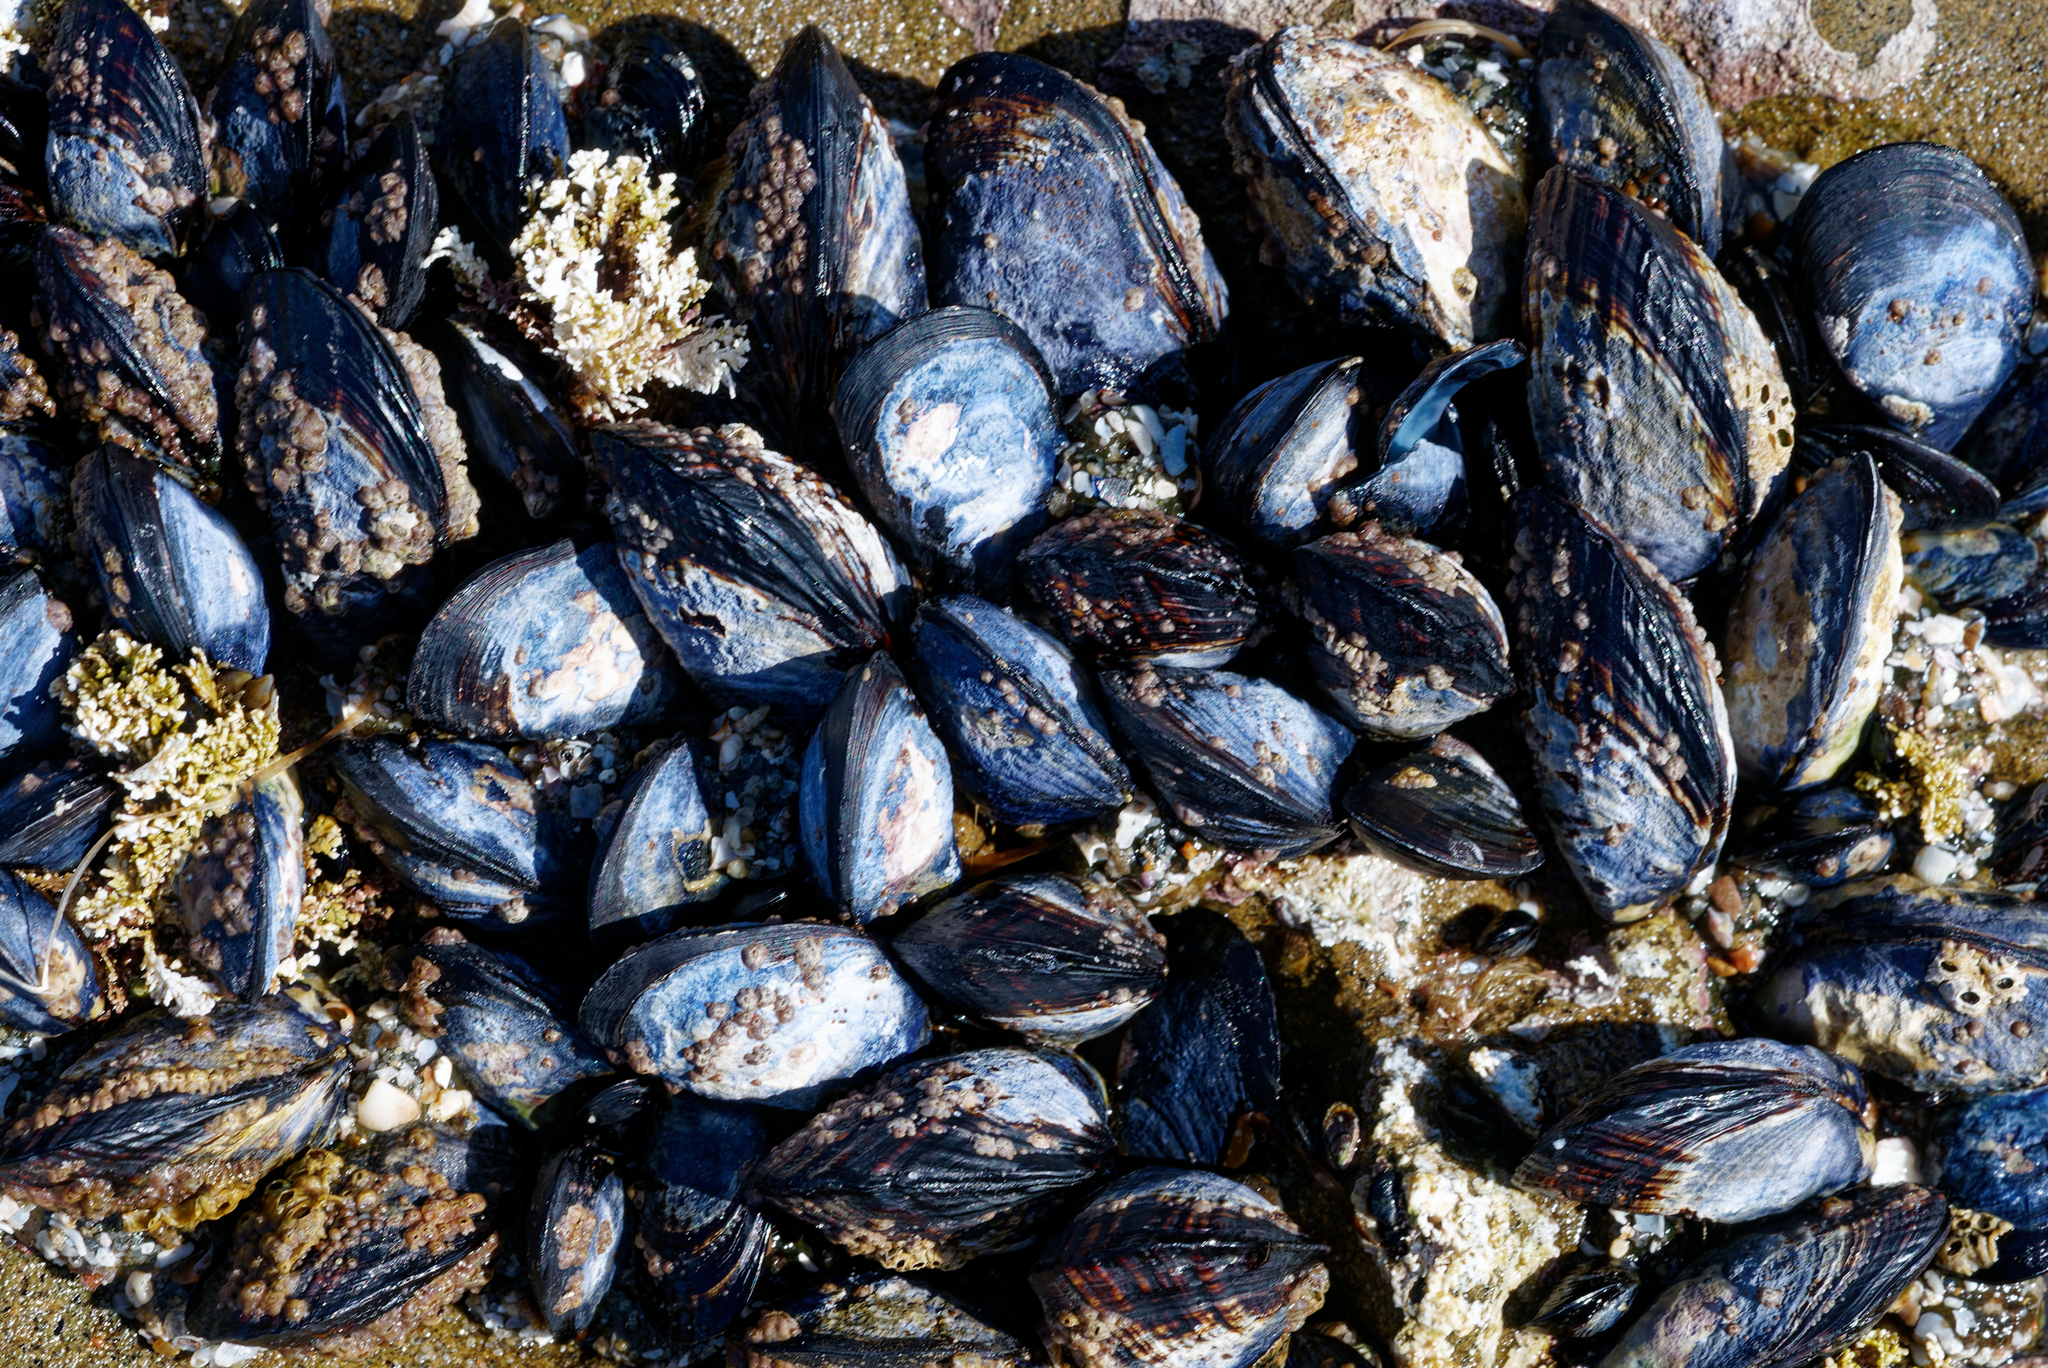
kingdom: Animalia
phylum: Mollusca
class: Bivalvia
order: Mytilida
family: Mytilidae
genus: Mytilus
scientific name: Mytilus californianus
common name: California mussel
